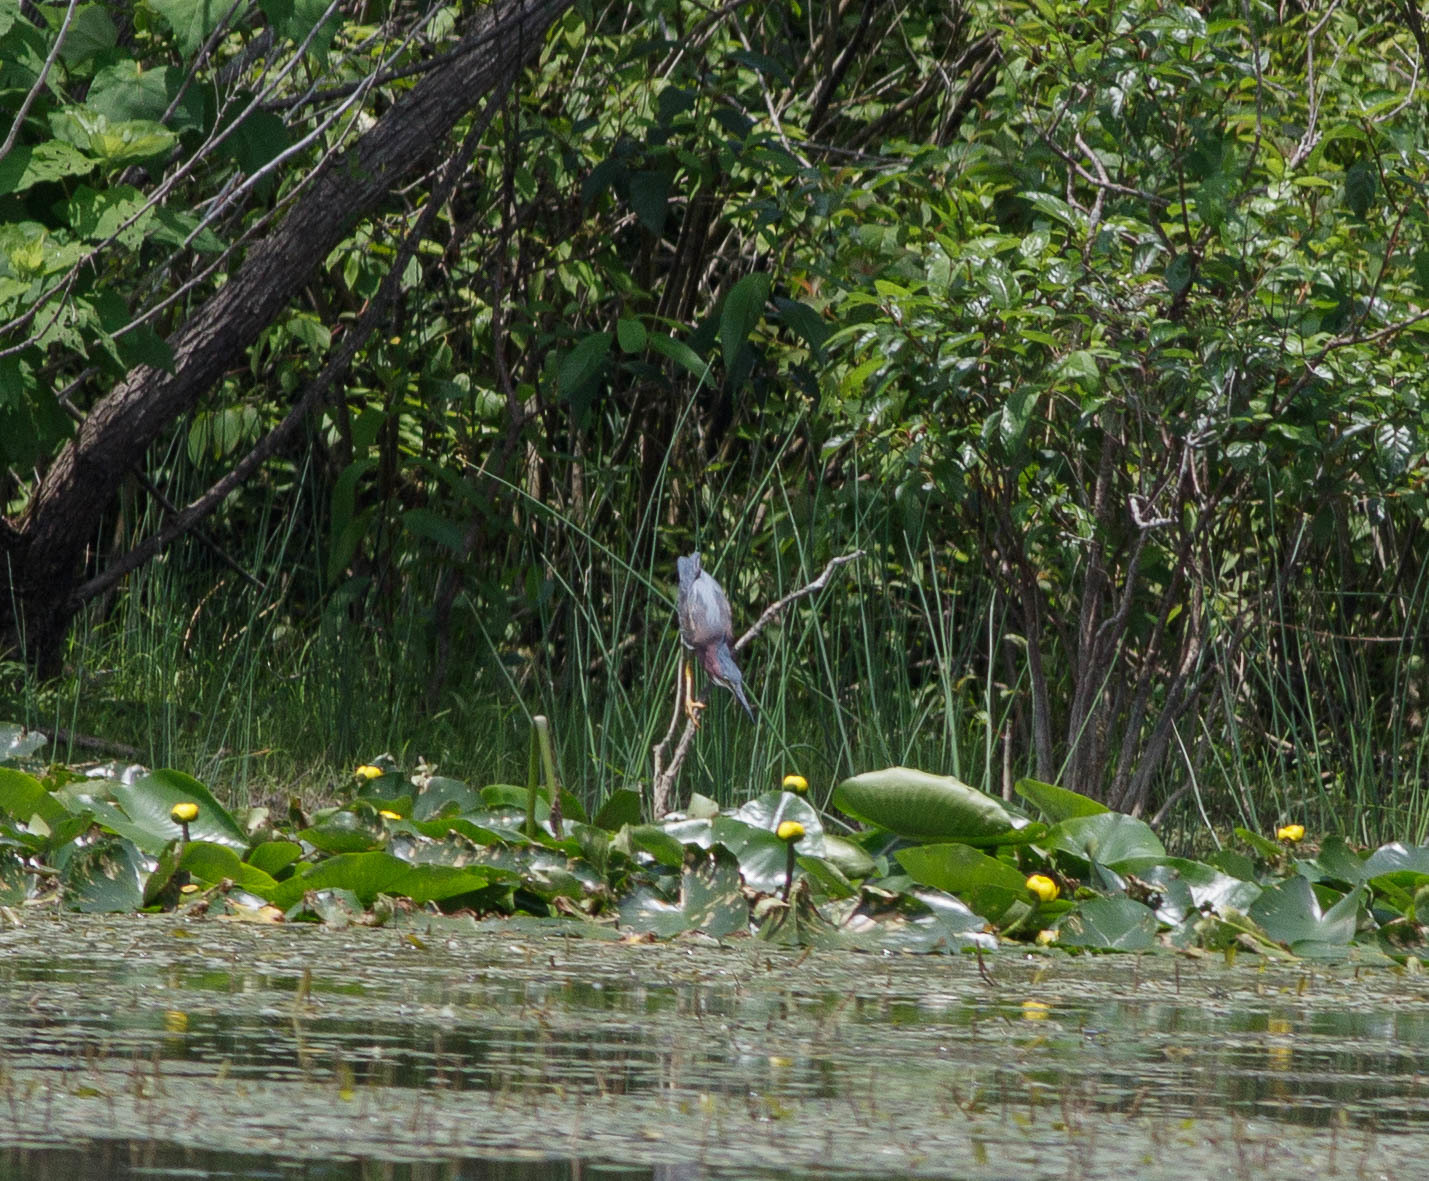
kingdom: Animalia
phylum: Chordata
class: Aves
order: Pelecaniformes
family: Ardeidae
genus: Butorides
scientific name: Butorides virescens
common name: Green heron
